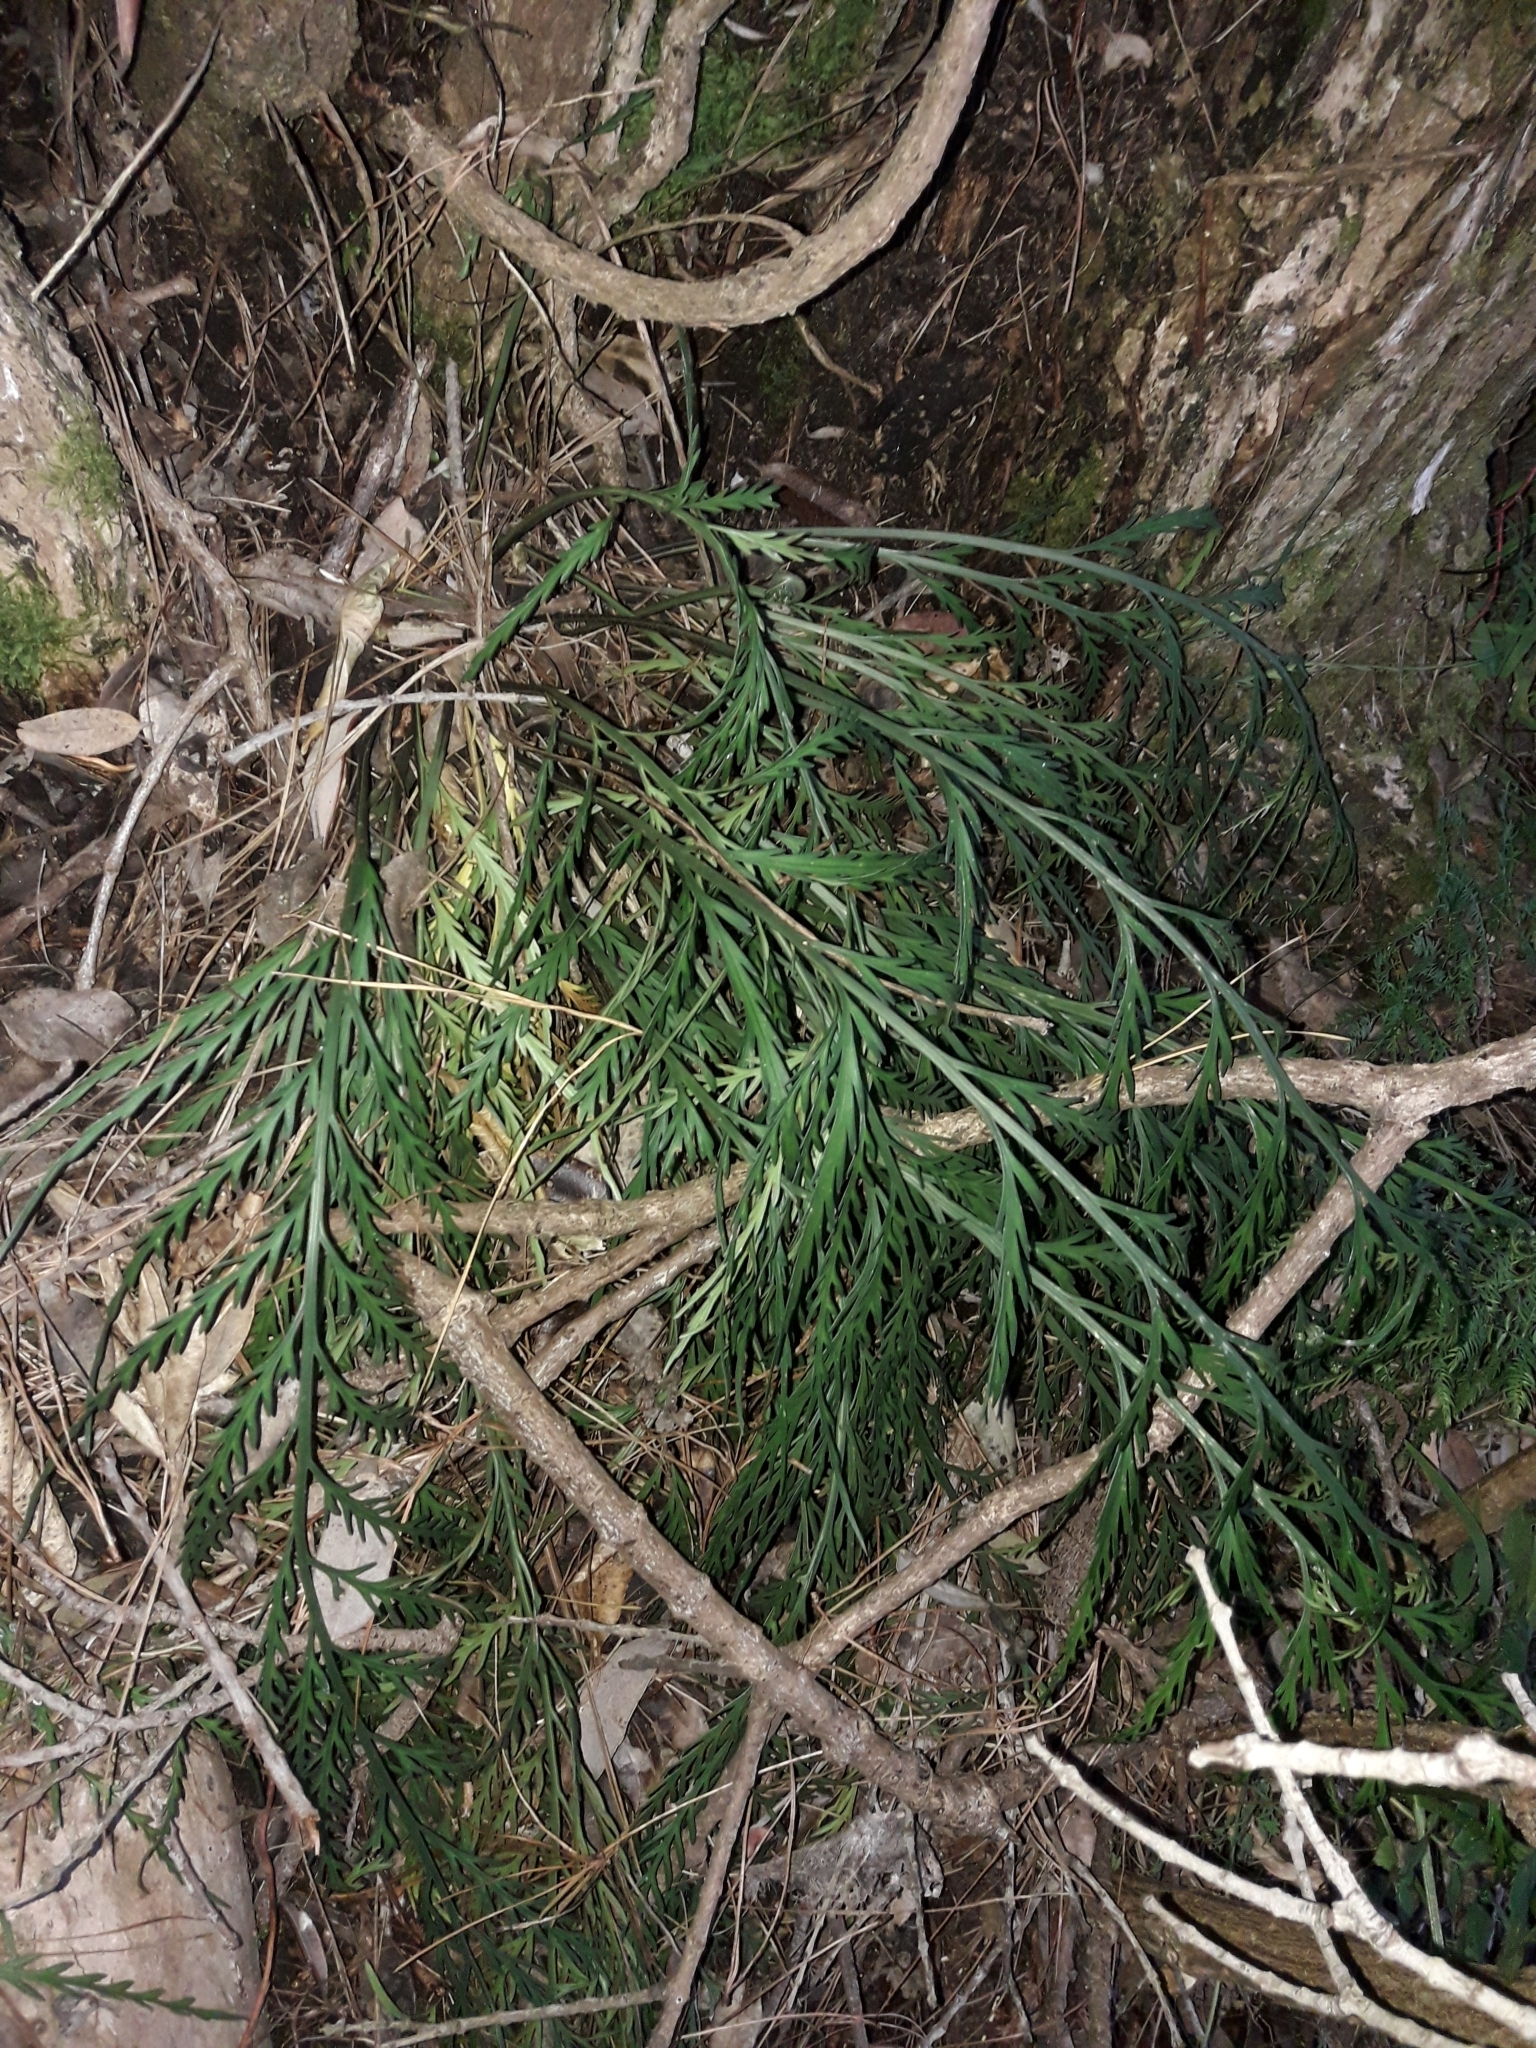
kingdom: Plantae
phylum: Tracheophyta
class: Polypodiopsida
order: Polypodiales
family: Aspleniaceae
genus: Asplenium
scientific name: Asplenium flaccidum
